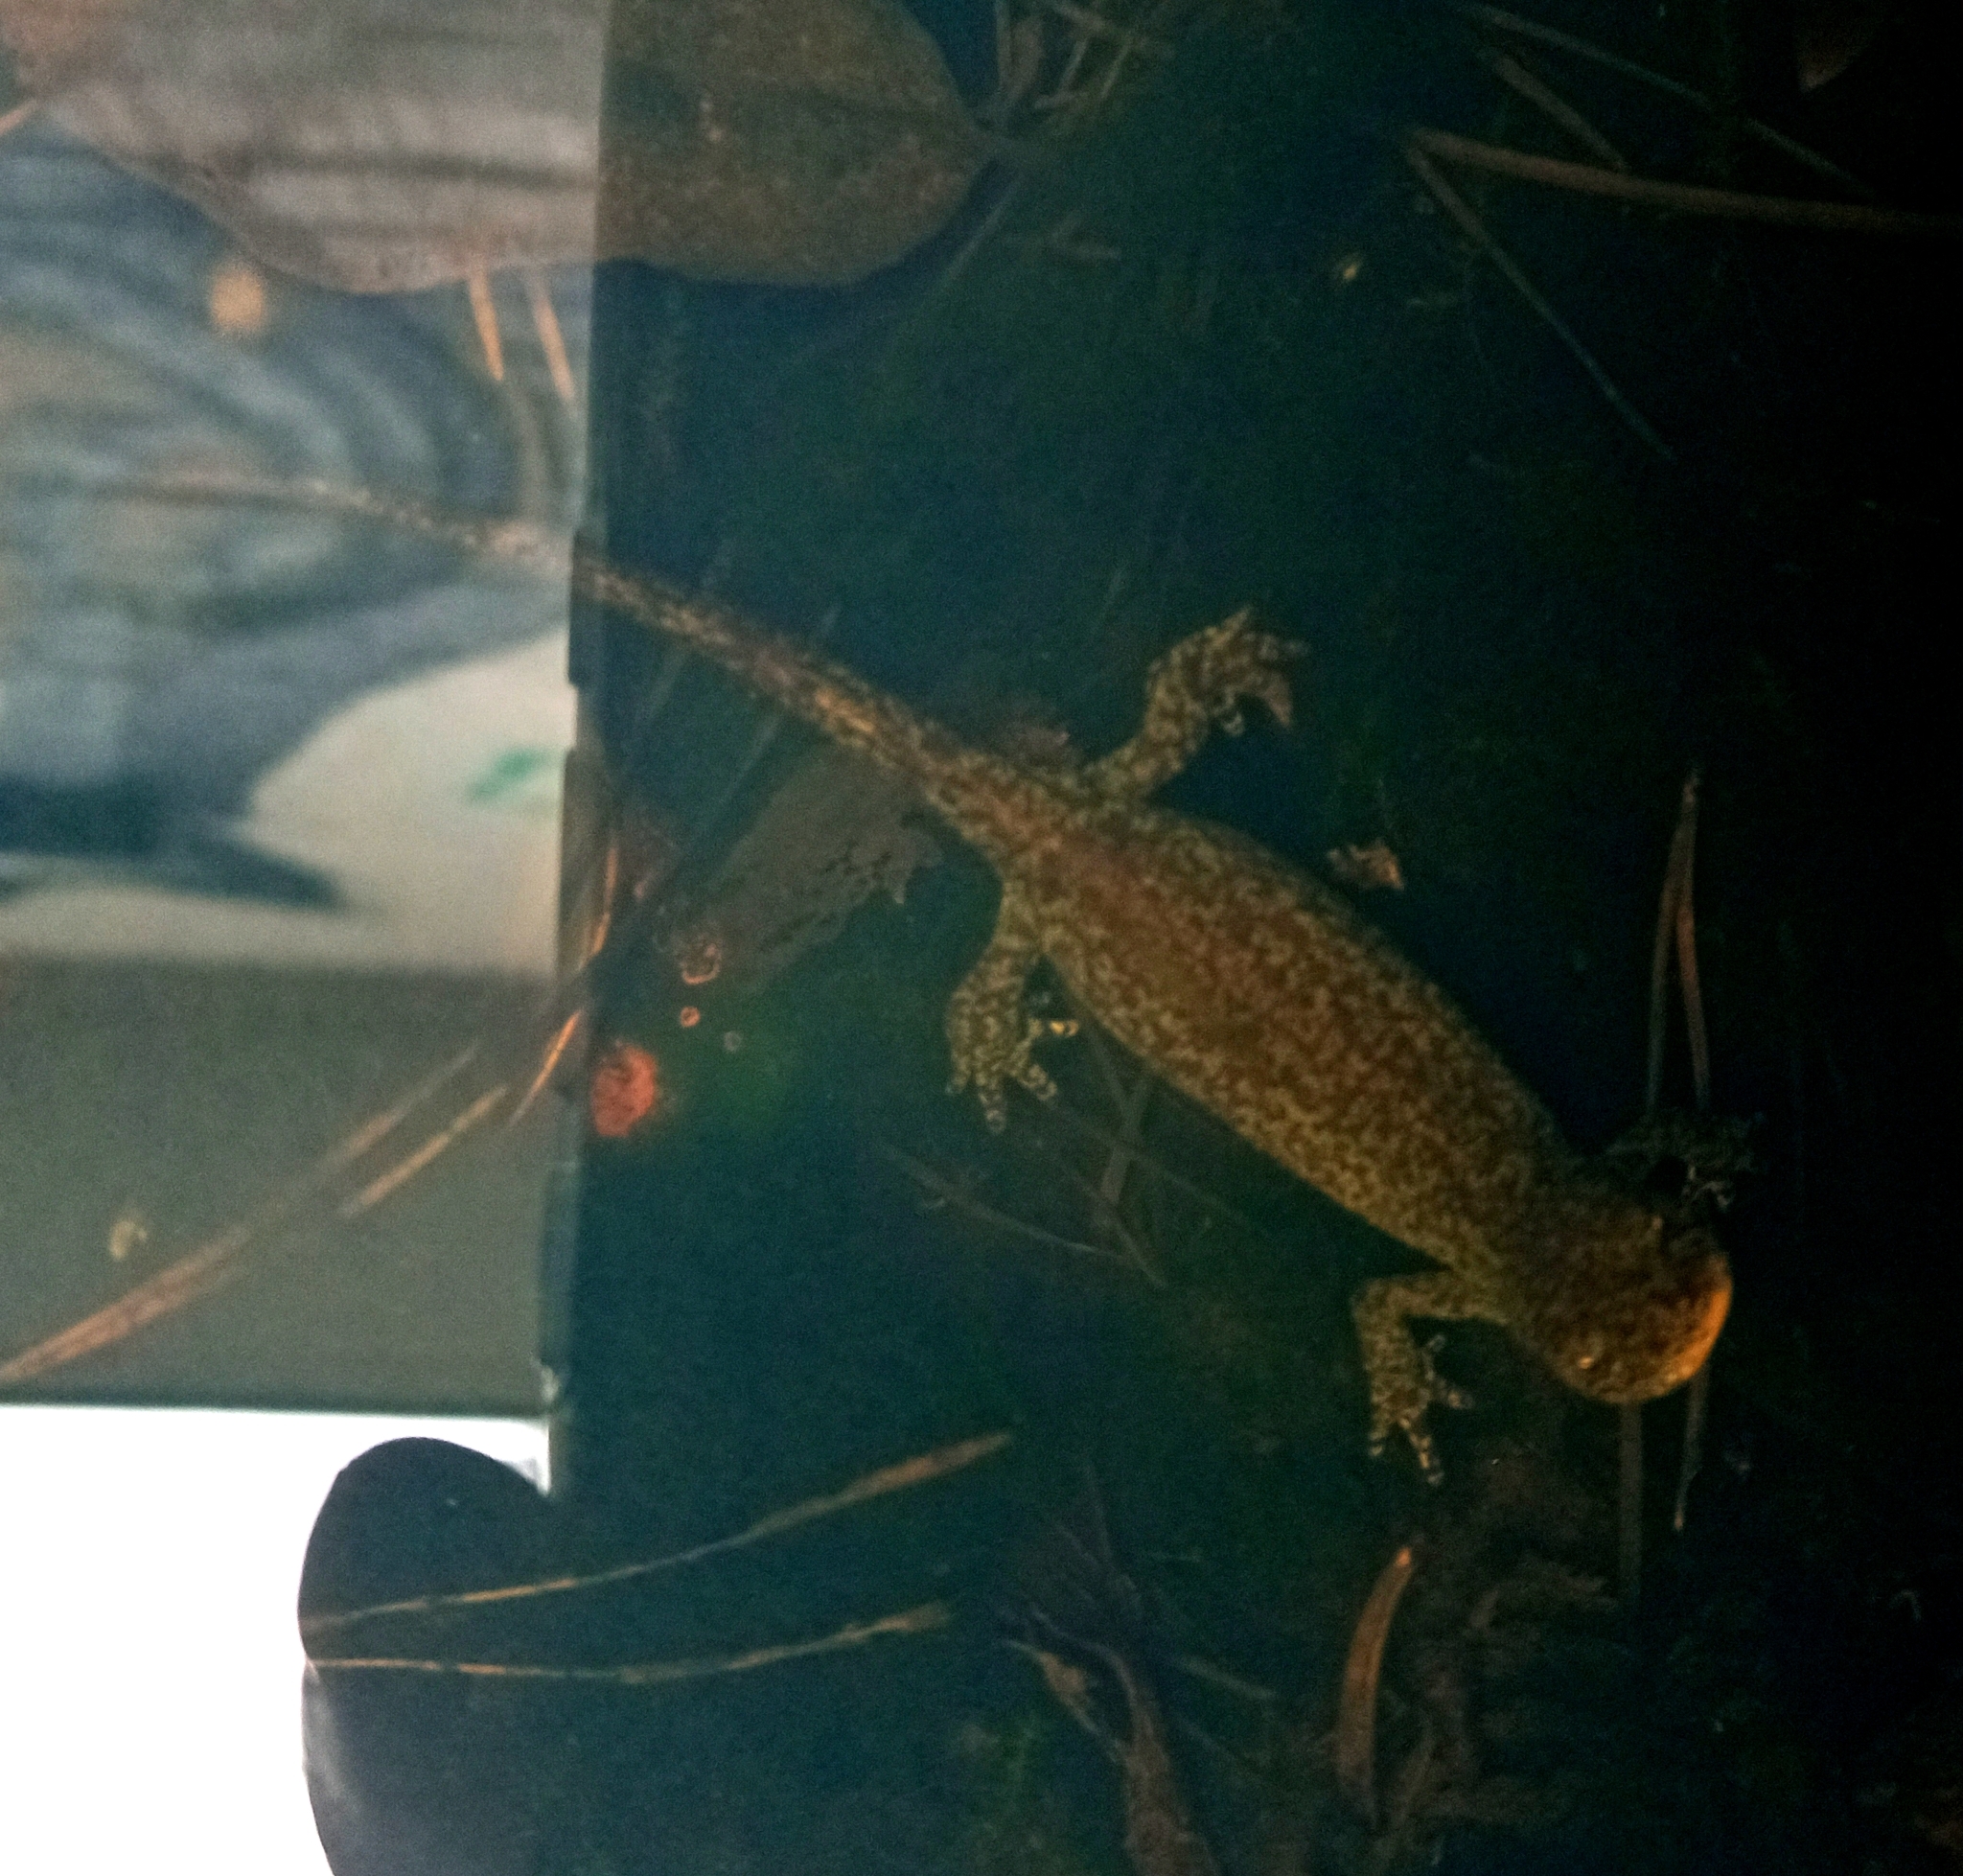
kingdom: Animalia
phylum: Chordata
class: Amphibia
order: Caudata
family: Salamandridae
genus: Ichthyosaura
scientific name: Ichthyosaura alpestris
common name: Alpine newt
